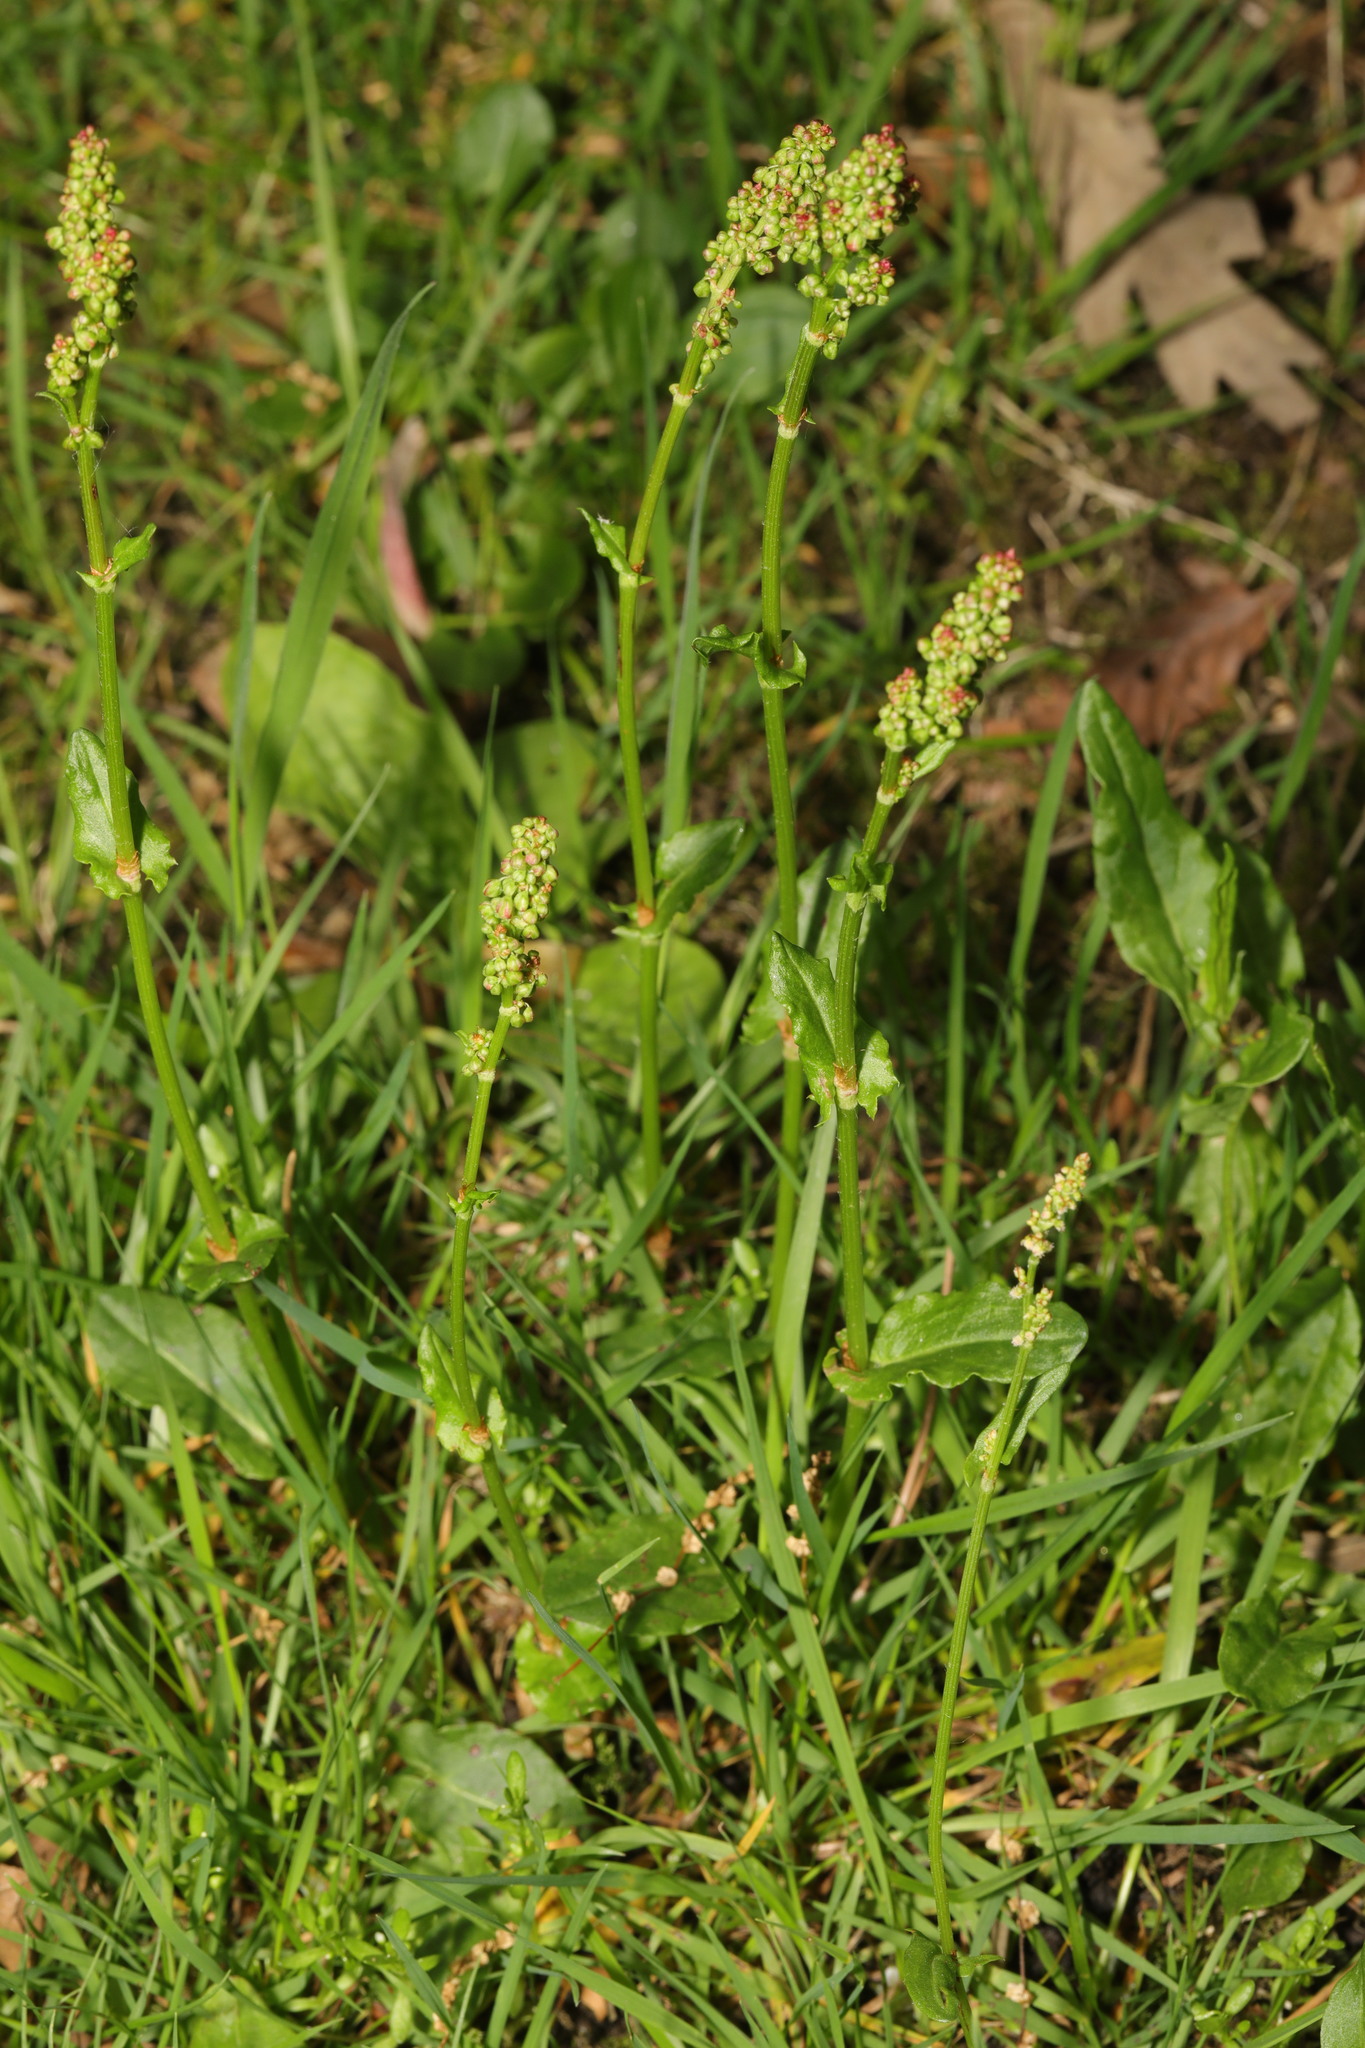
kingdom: Plantae
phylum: Tracheophyta
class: Magnoliopsida
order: Caryophyllales
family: Polygonaceae
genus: Rumex
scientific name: Rumex acetosa
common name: Garden sorrel
